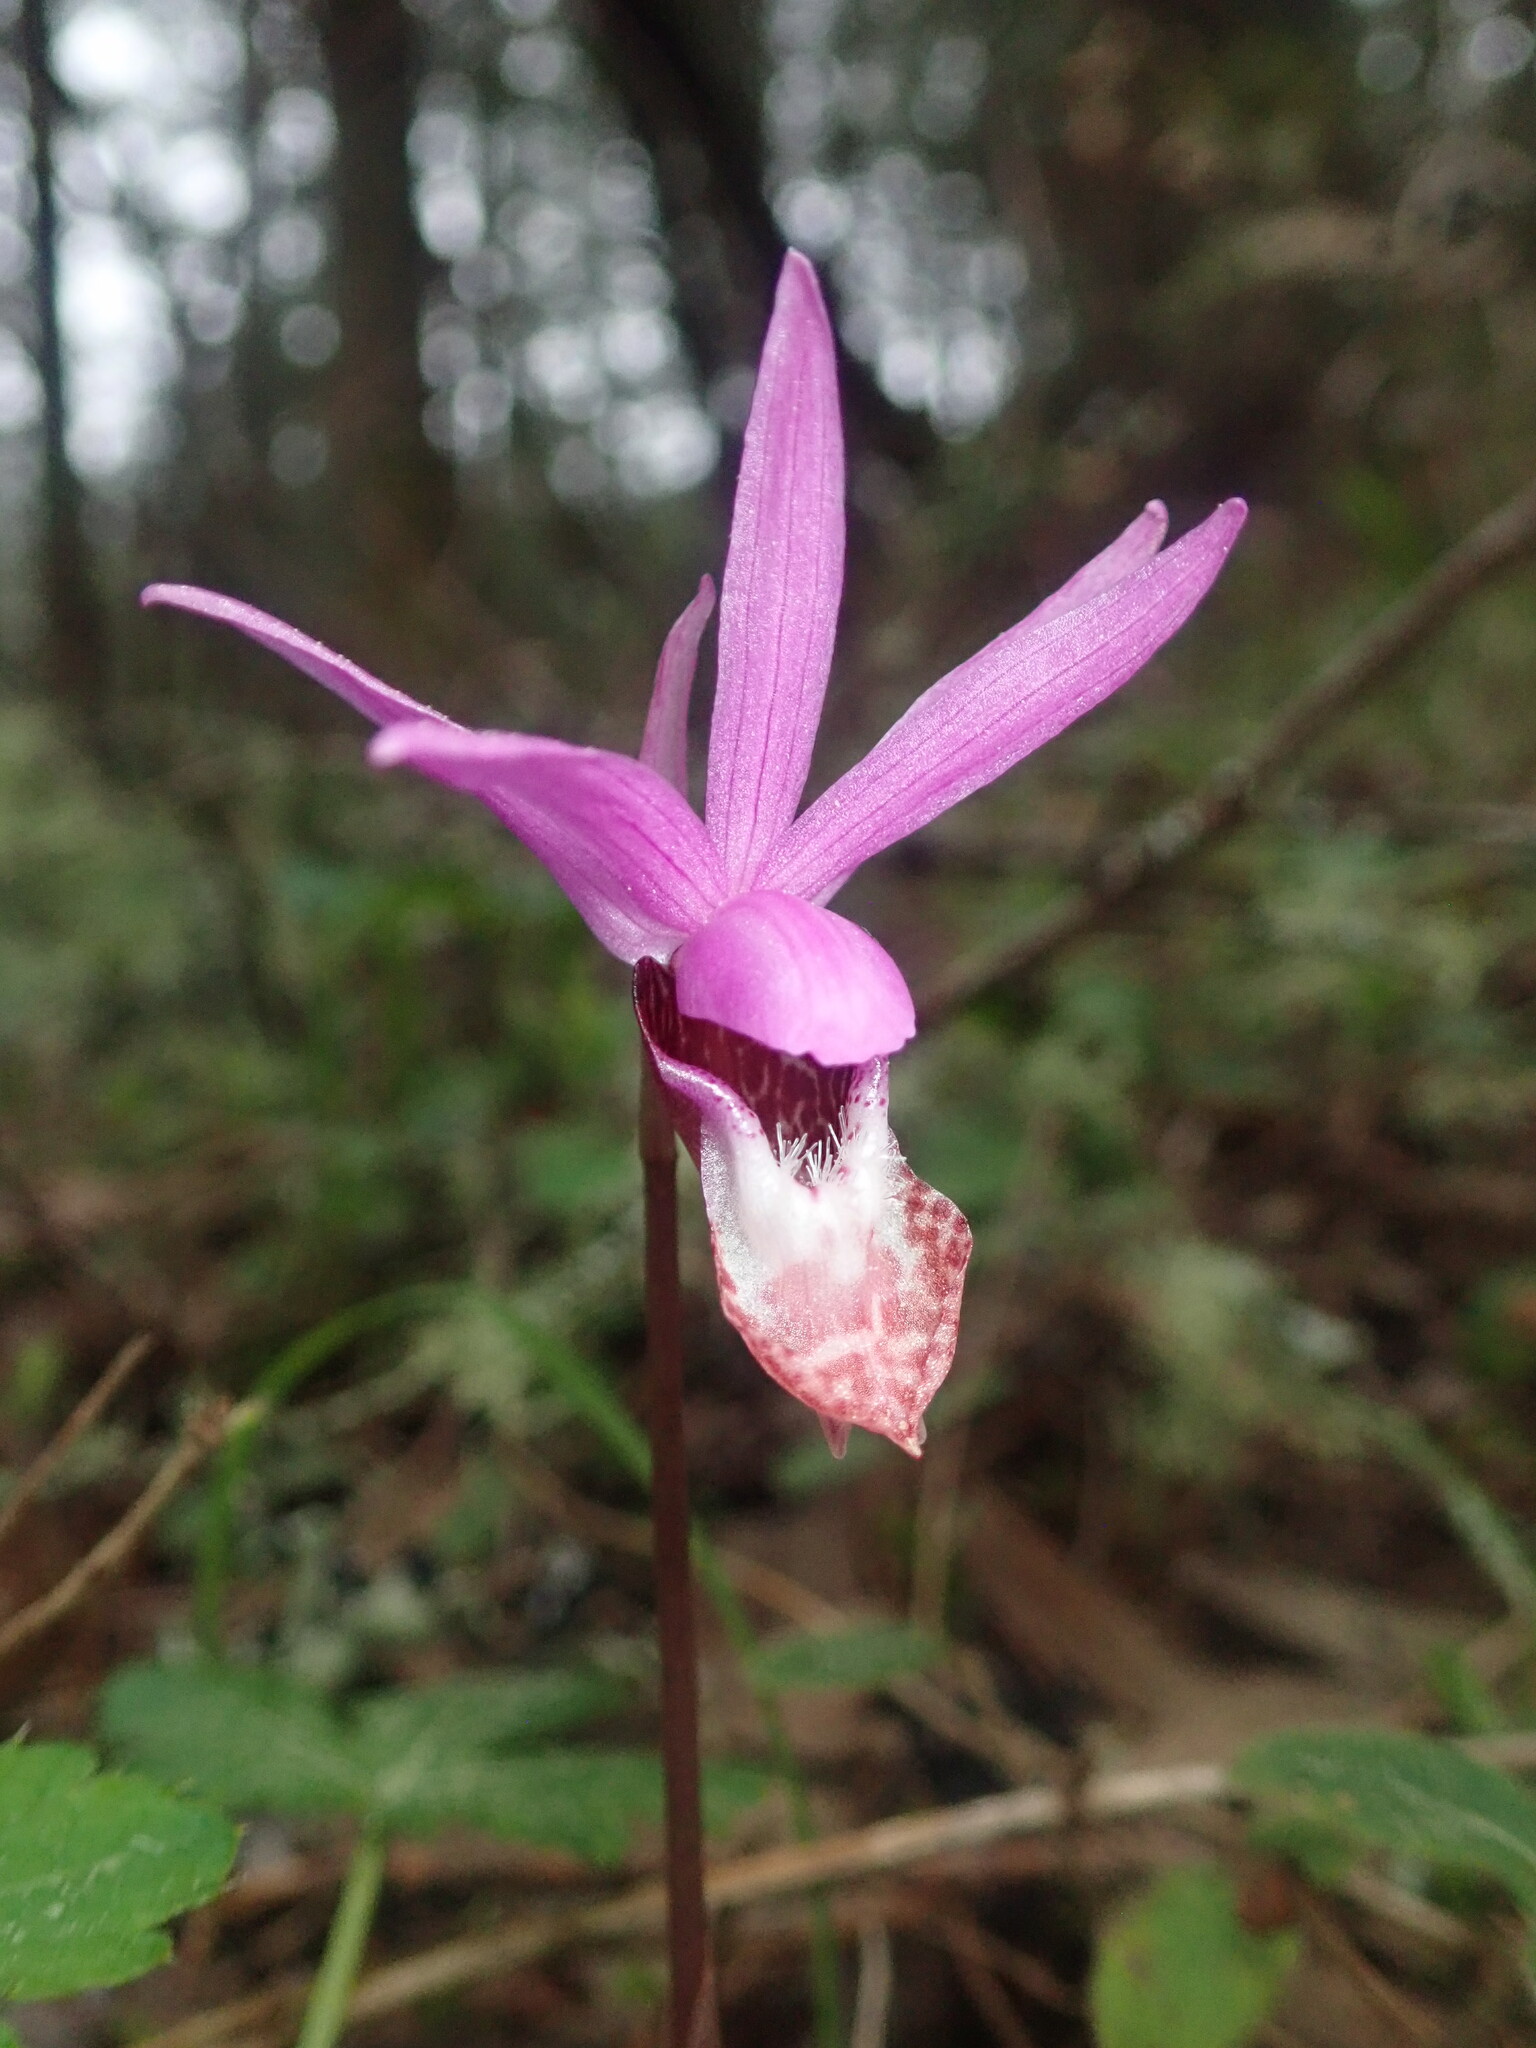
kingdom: Plantae
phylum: Tracheophyta
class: Liliopsida
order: Asparagales
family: Orchidaceae
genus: Calypso
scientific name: Calypso bulbosa
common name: Calypso
